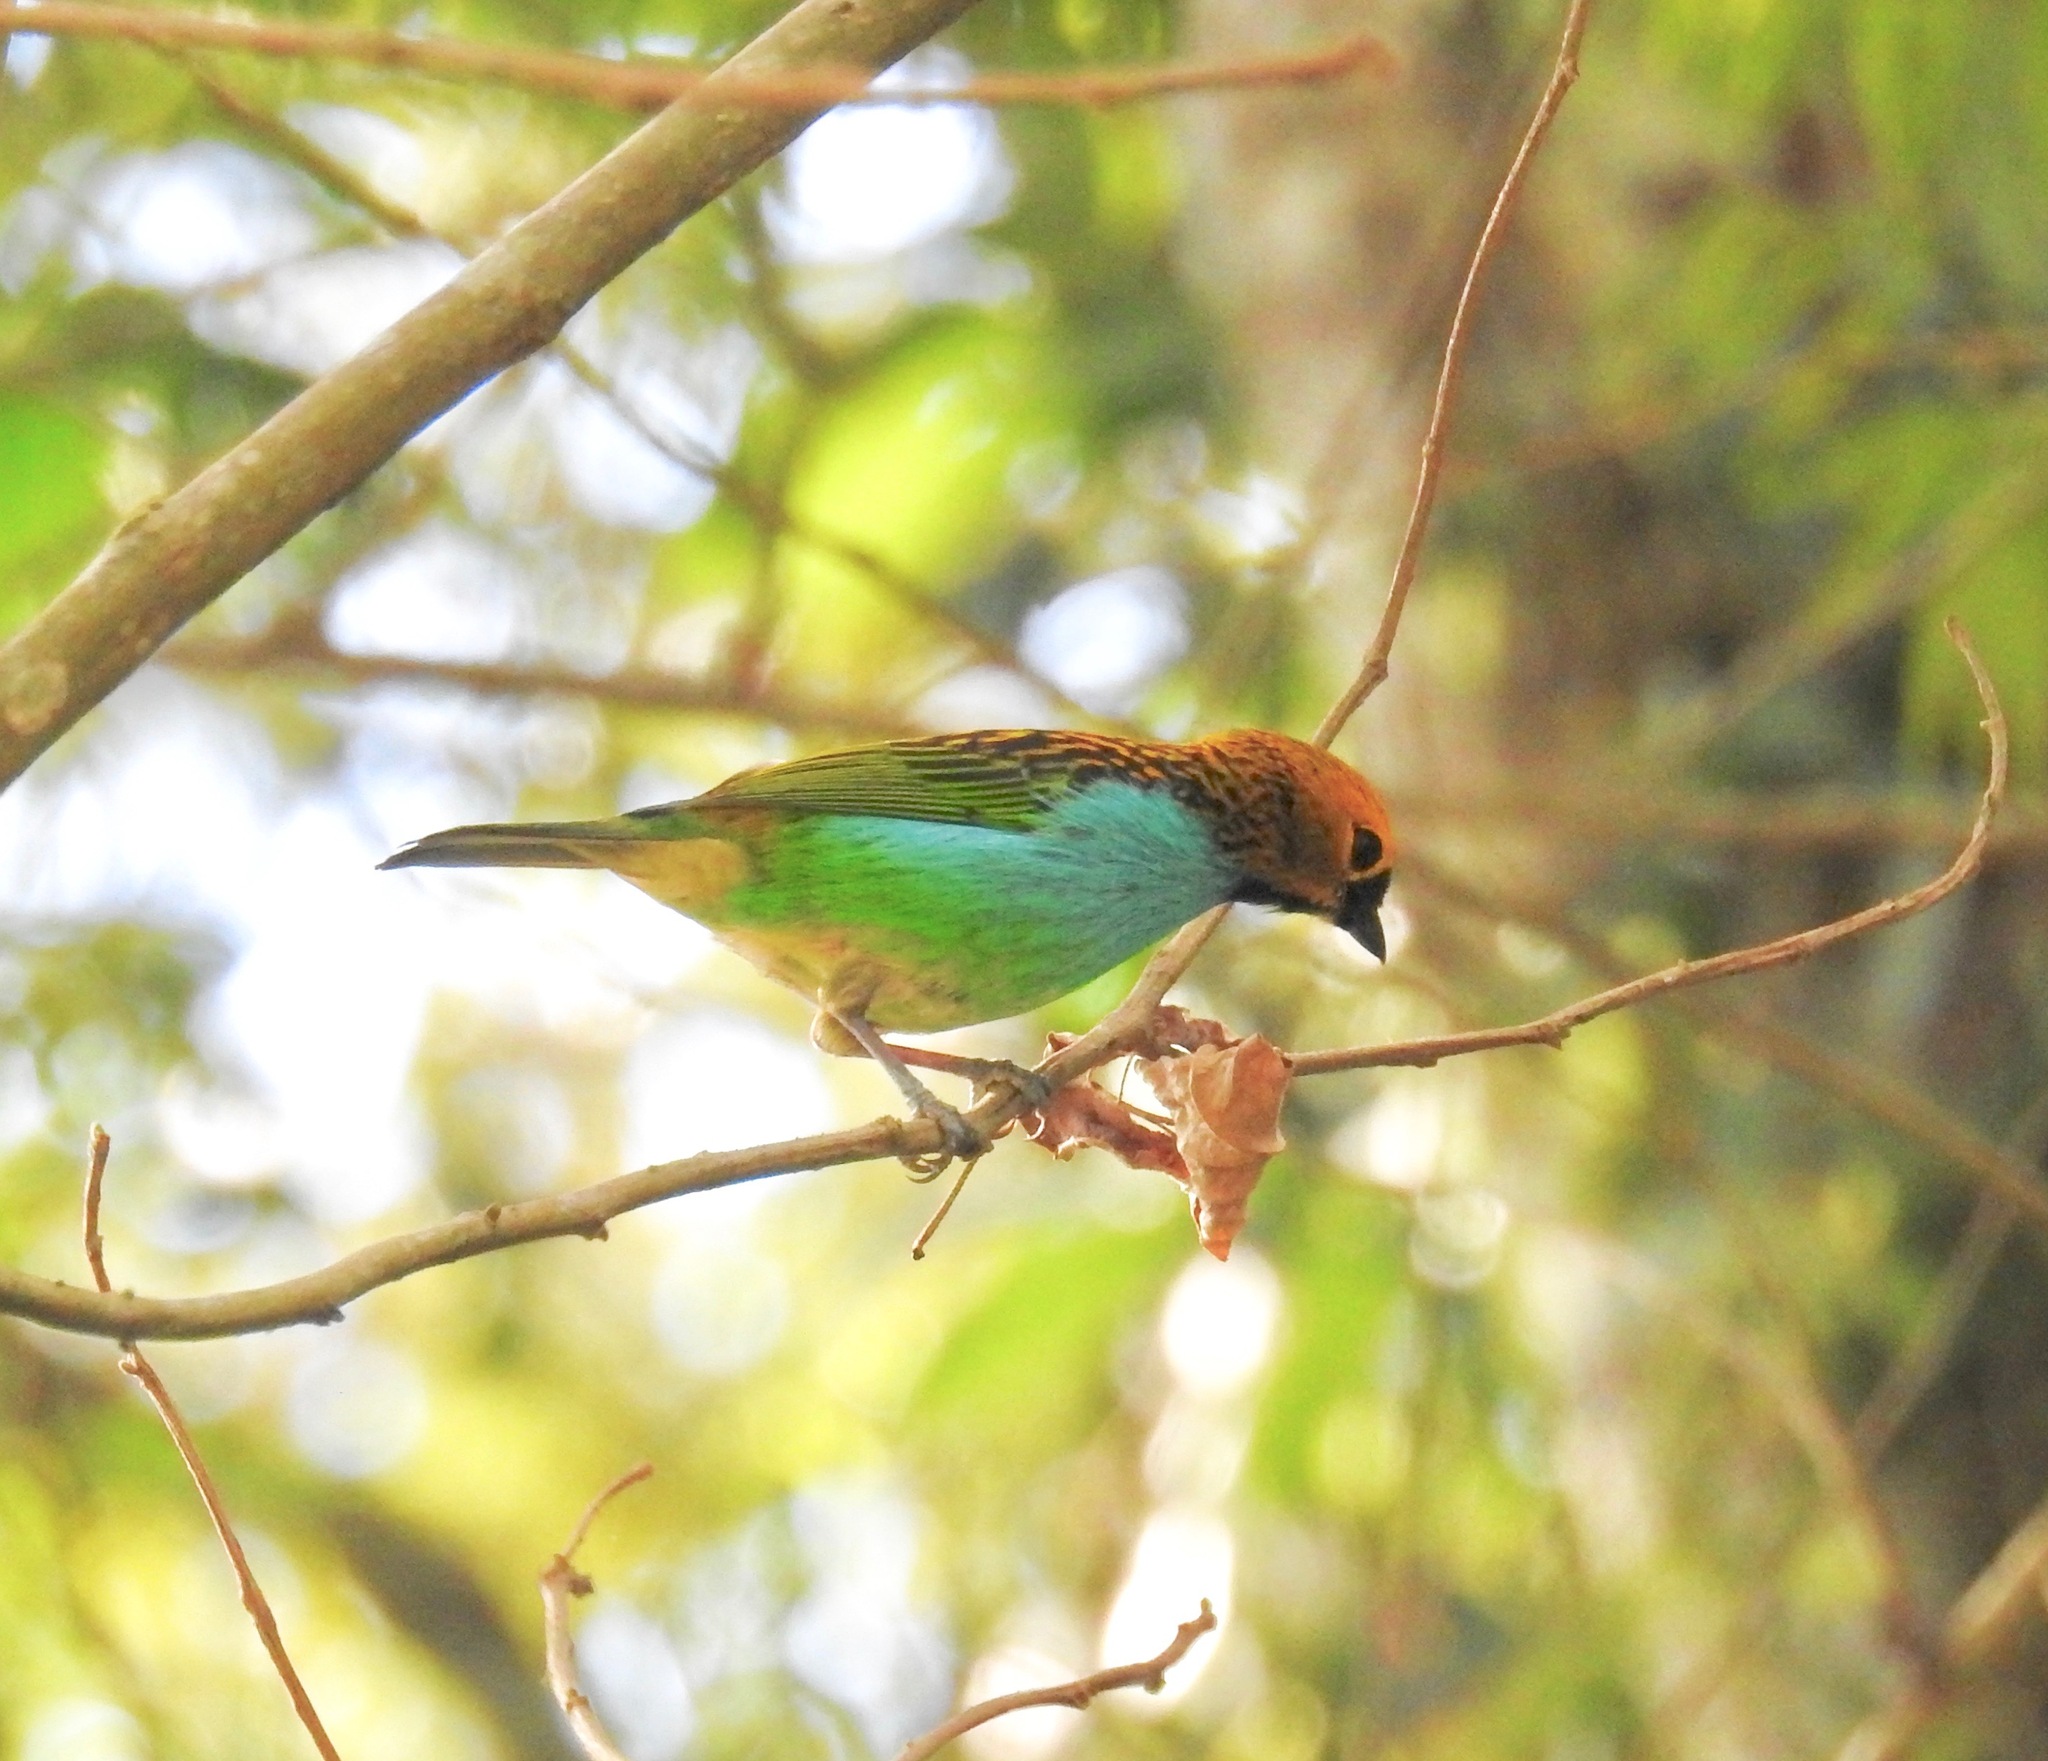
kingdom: Animalia
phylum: Chordata
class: Aves
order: Passeriformes
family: Thraupidae
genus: Tangara
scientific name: Tangara cyanoventris
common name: Gilt-edged tanager
